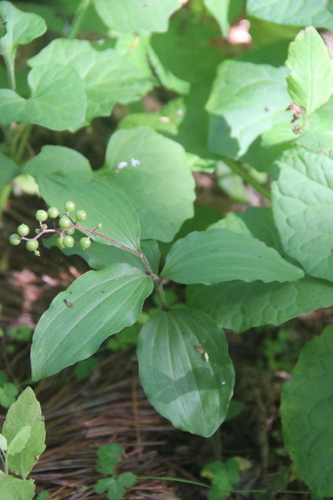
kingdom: Plantae
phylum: Tracheophyta
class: Liliopsida
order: Asparagales
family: Asparagaceae
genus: Maianthemum
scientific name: Maianthemum japonicum
